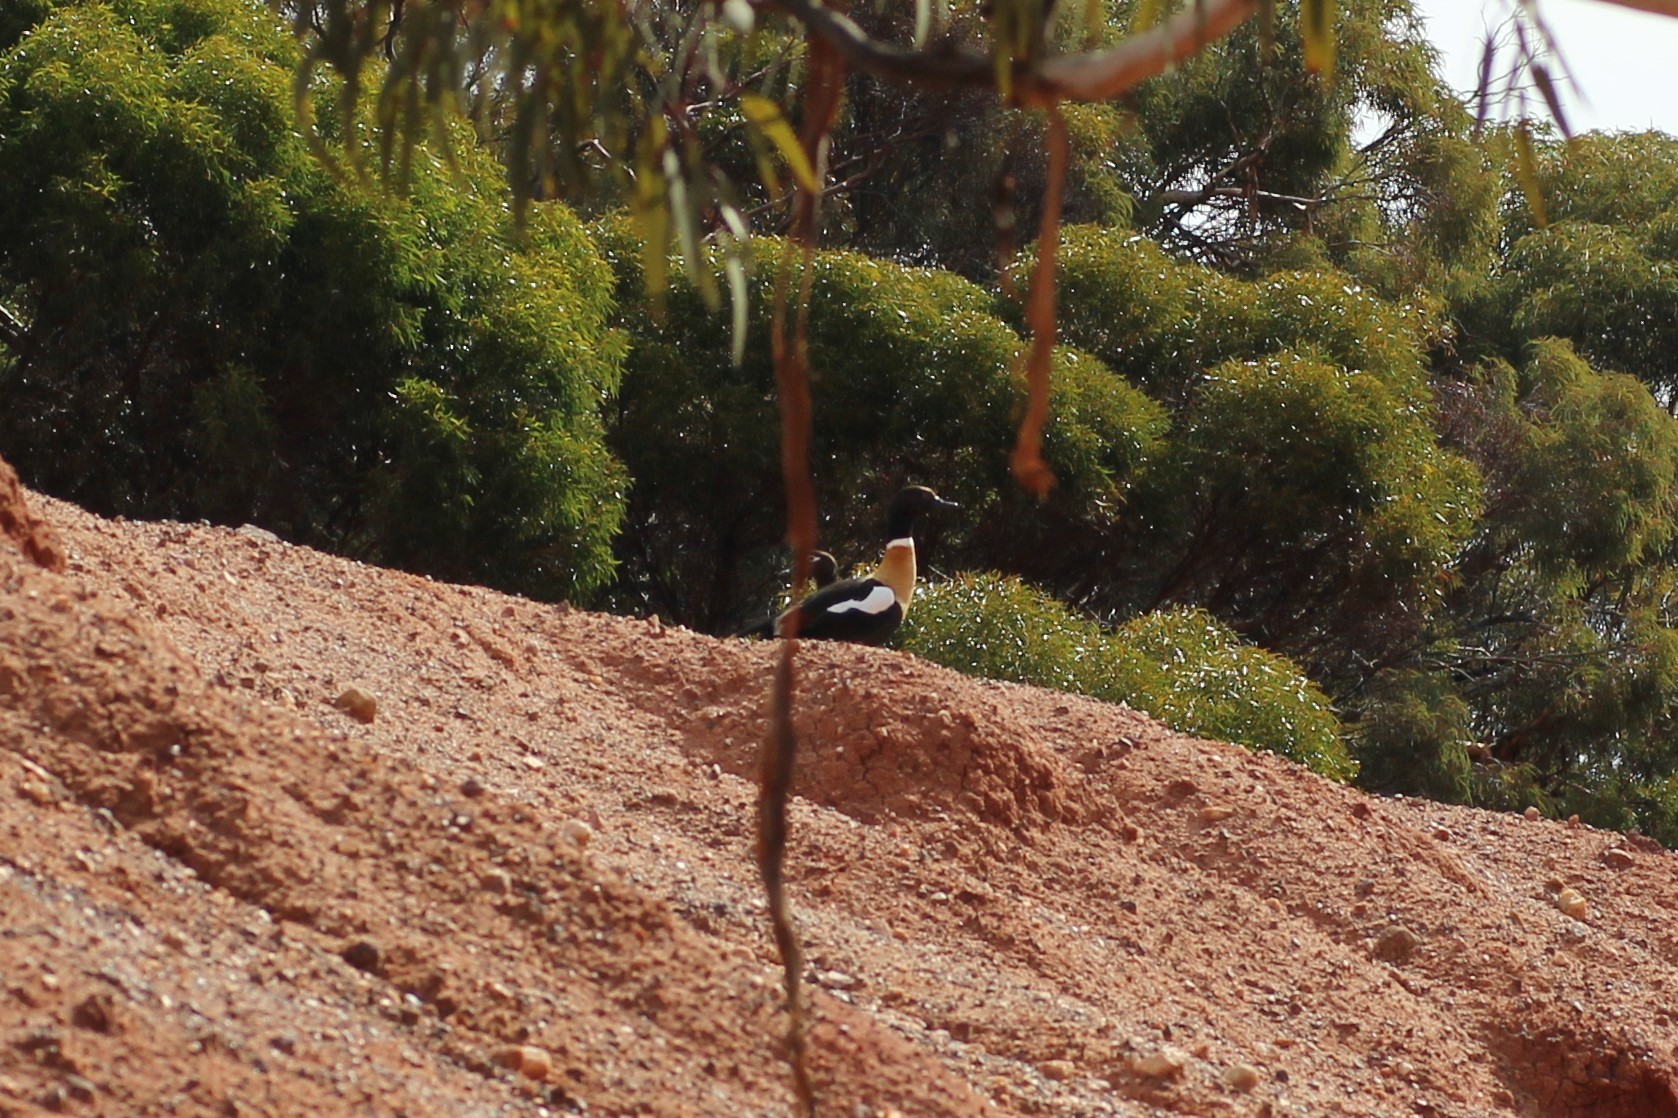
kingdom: Animalia
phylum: Chordata
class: Aves
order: Anseriformes
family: Anatidae
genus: Tadorna
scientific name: Tadorna tadornoides
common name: Australian shelduck
